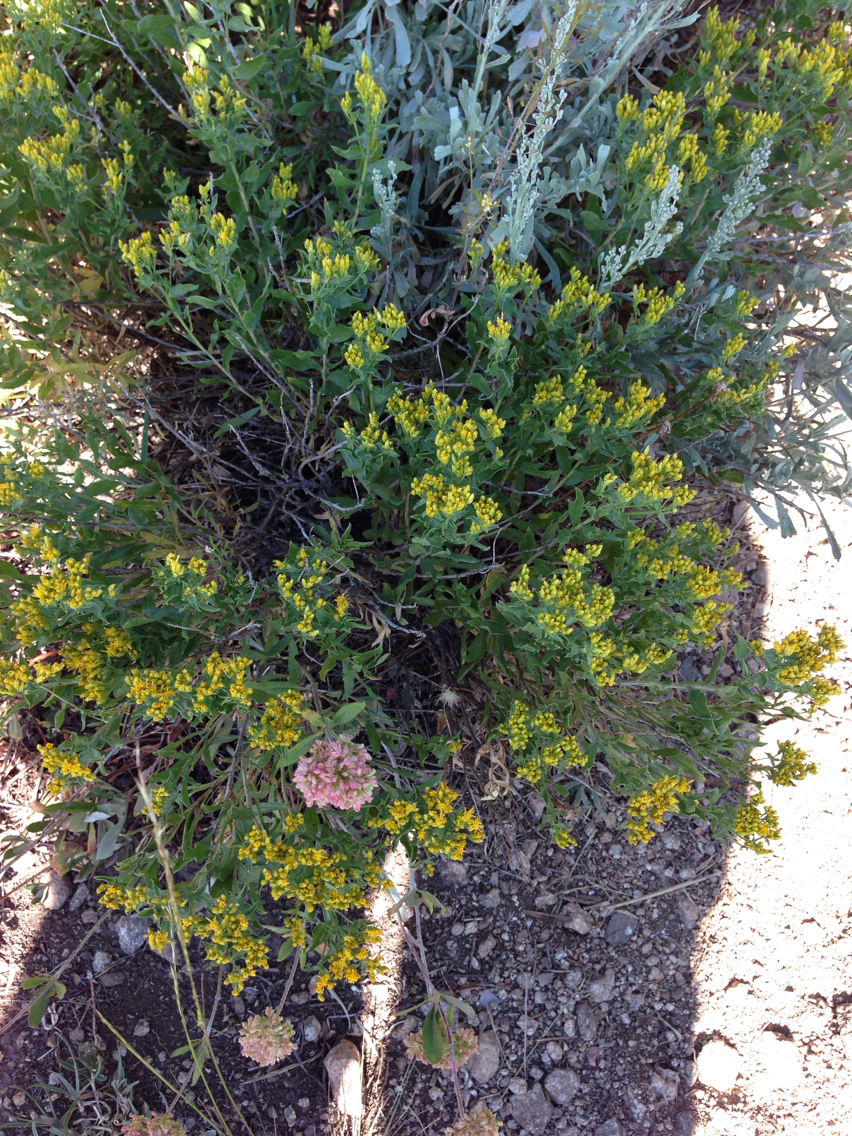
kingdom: Plantae
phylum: Tracheophyta
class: Magnoliopsida
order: Asterales
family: Asteraceae
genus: Chrysothamnus
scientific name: Chrysothamnus viscidiflorus
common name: Yellow rabbitbrush
